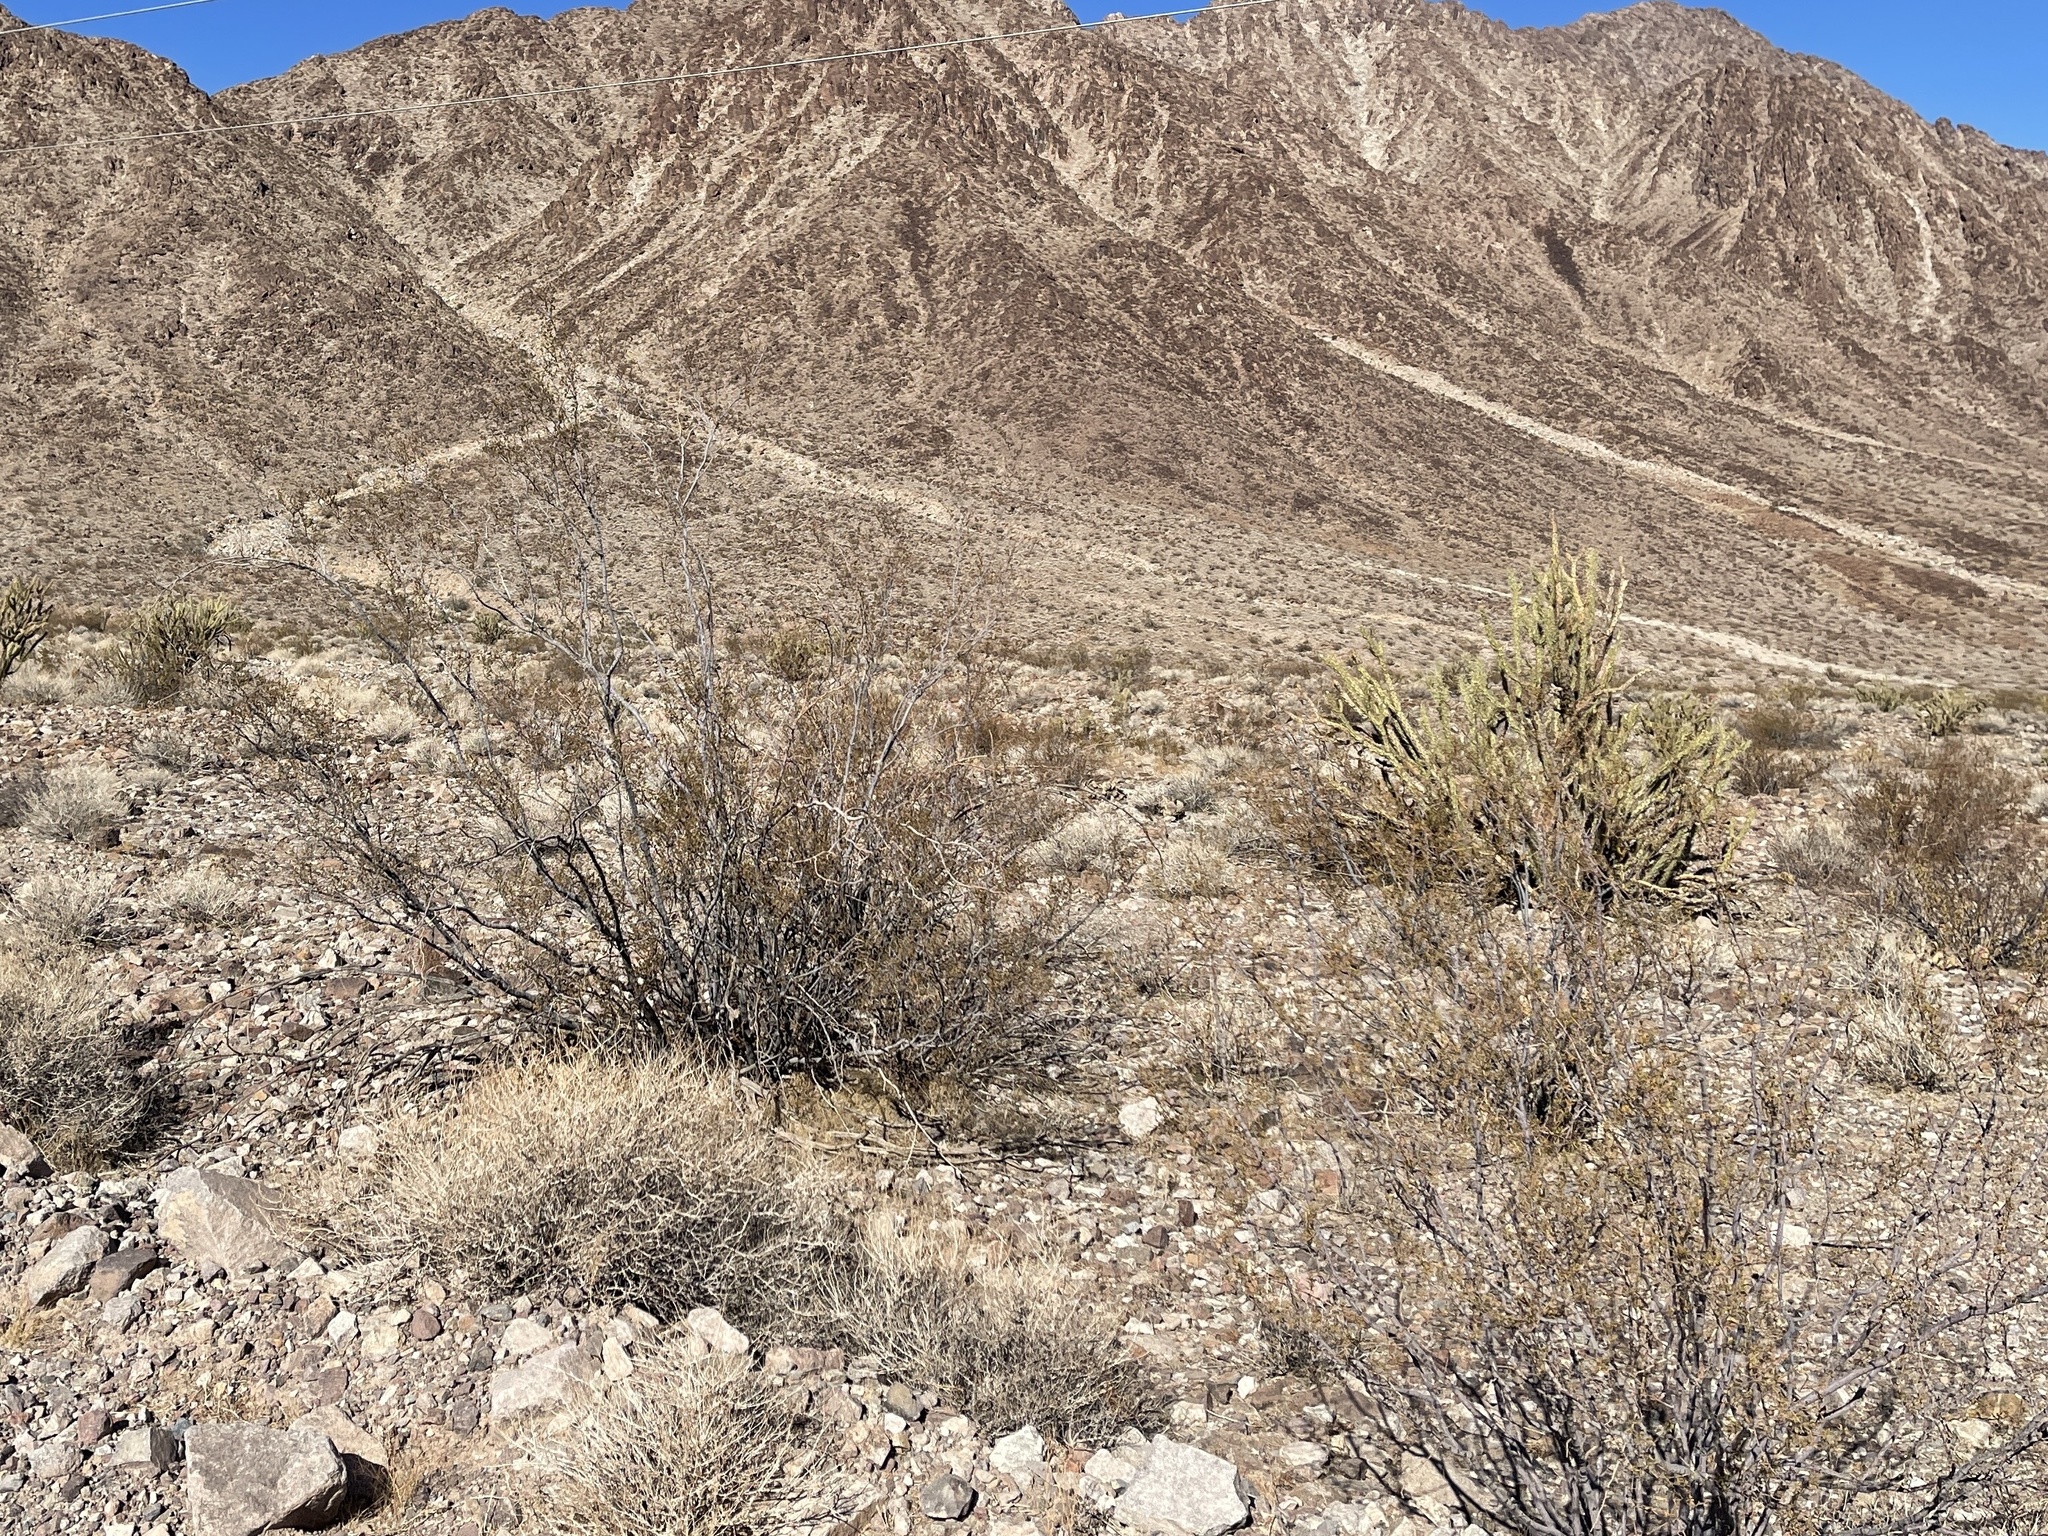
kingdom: Plantae
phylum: Tracheophyta
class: Magnoliopsida
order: Zygophyllales
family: Zygophyllaceae
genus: Larrea
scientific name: Larrea tridentata
